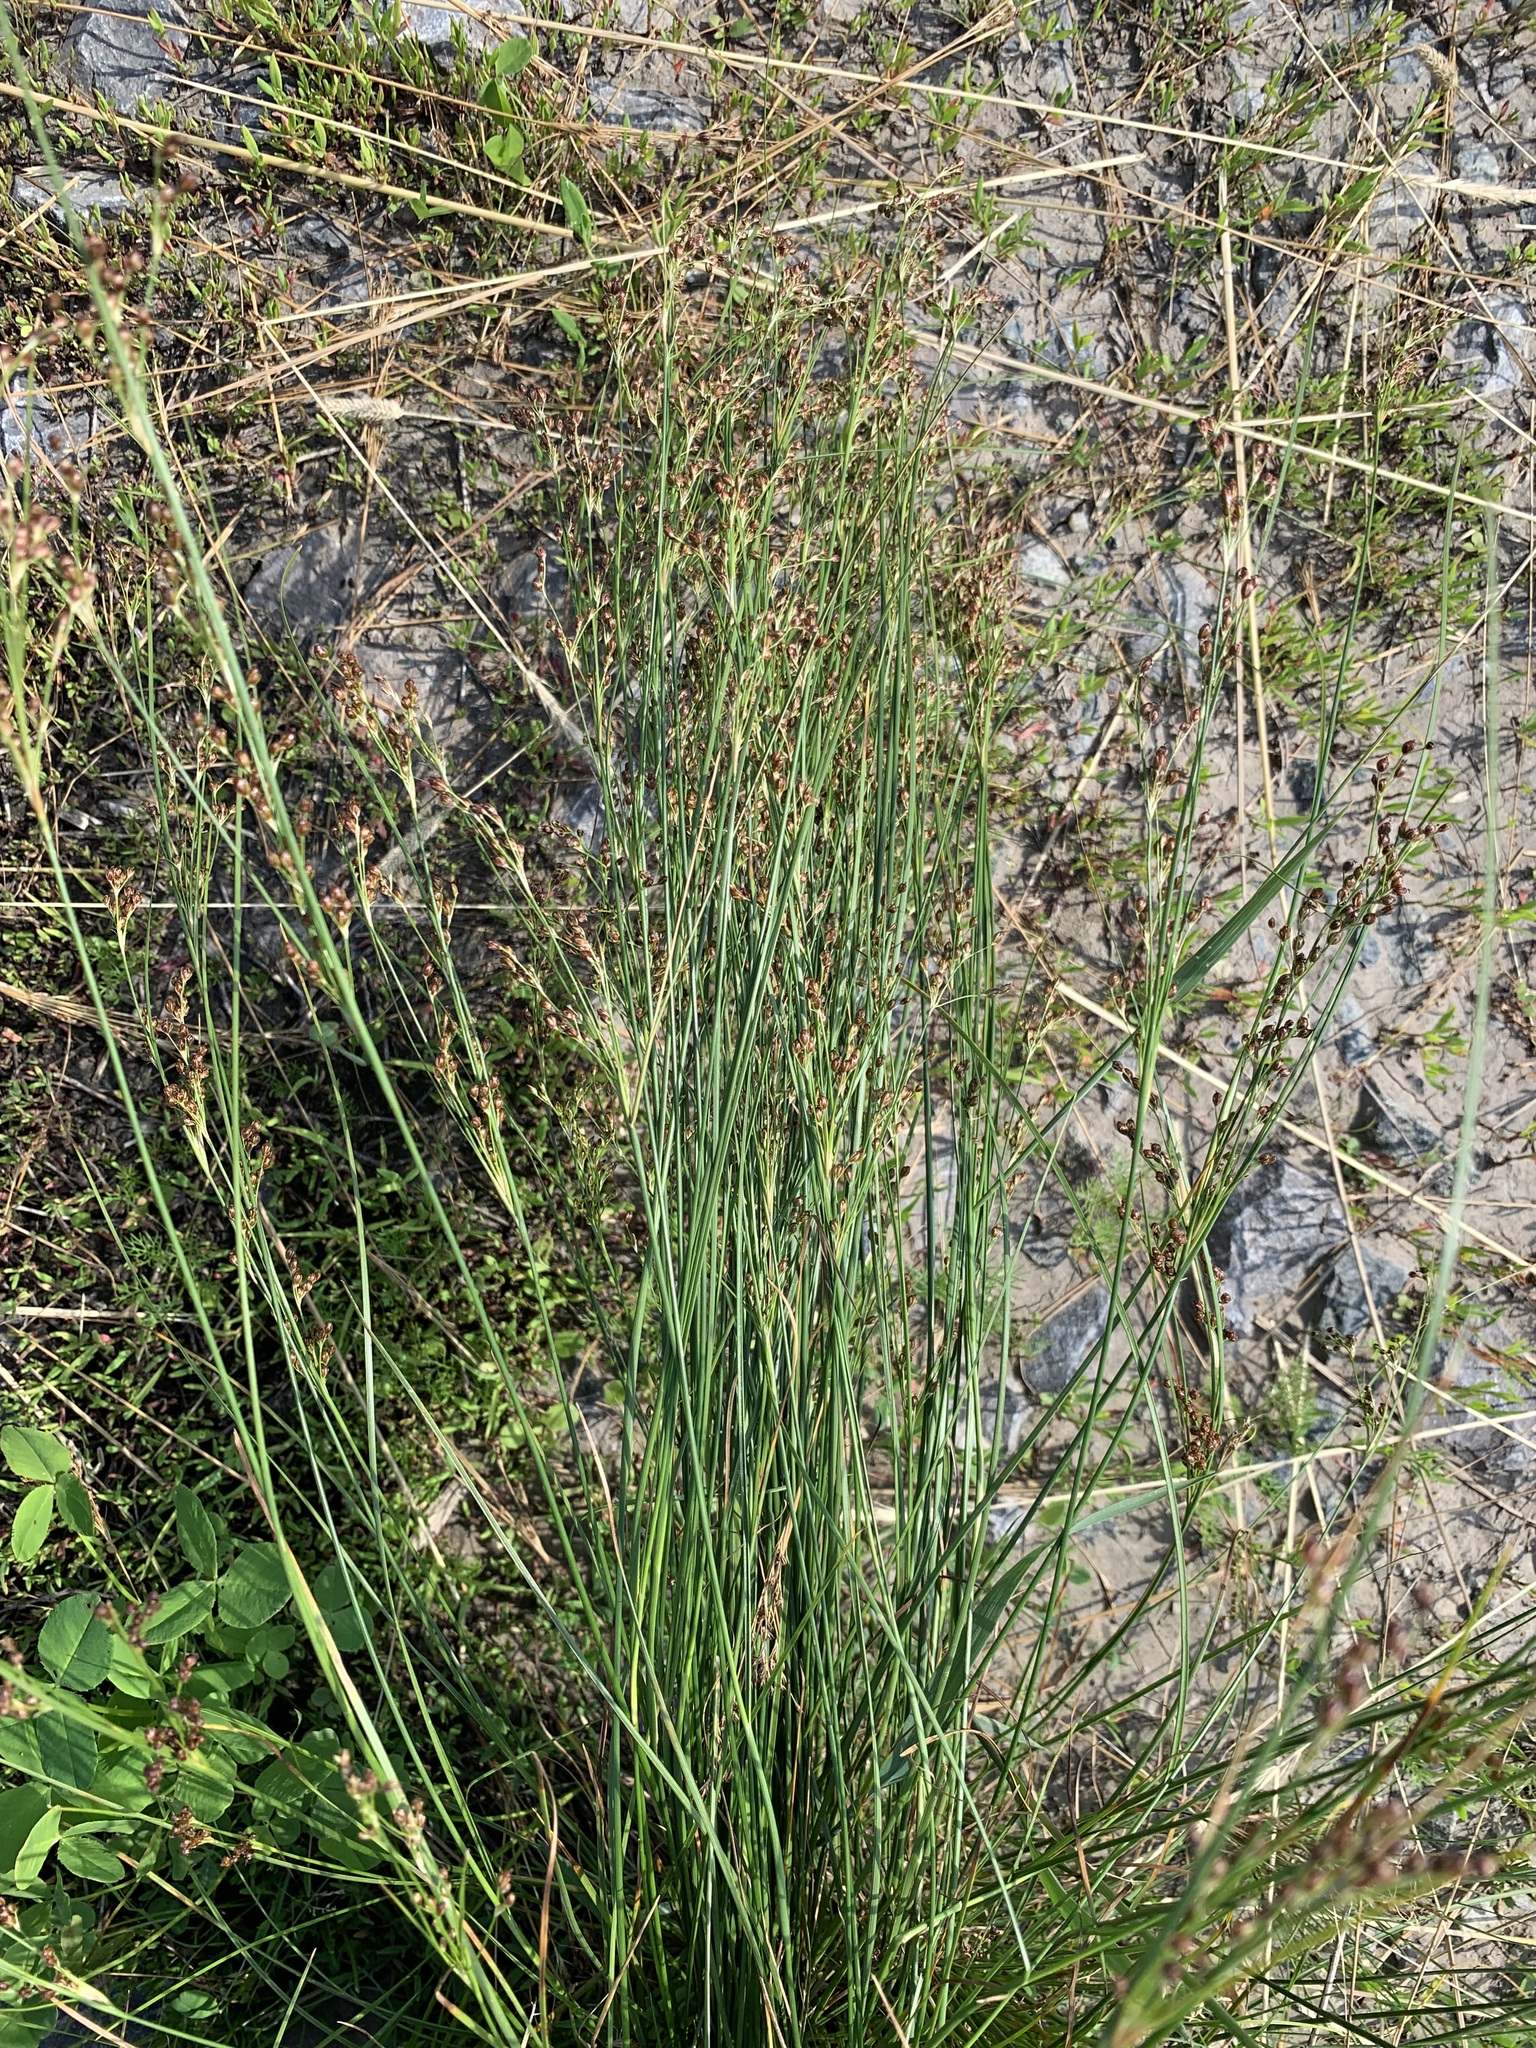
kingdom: Plantae
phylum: Tracheophyta
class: Liliopsida
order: Poales
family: Juncaceae
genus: Juncus
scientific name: Juncus compressus
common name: Round-fruited rush
